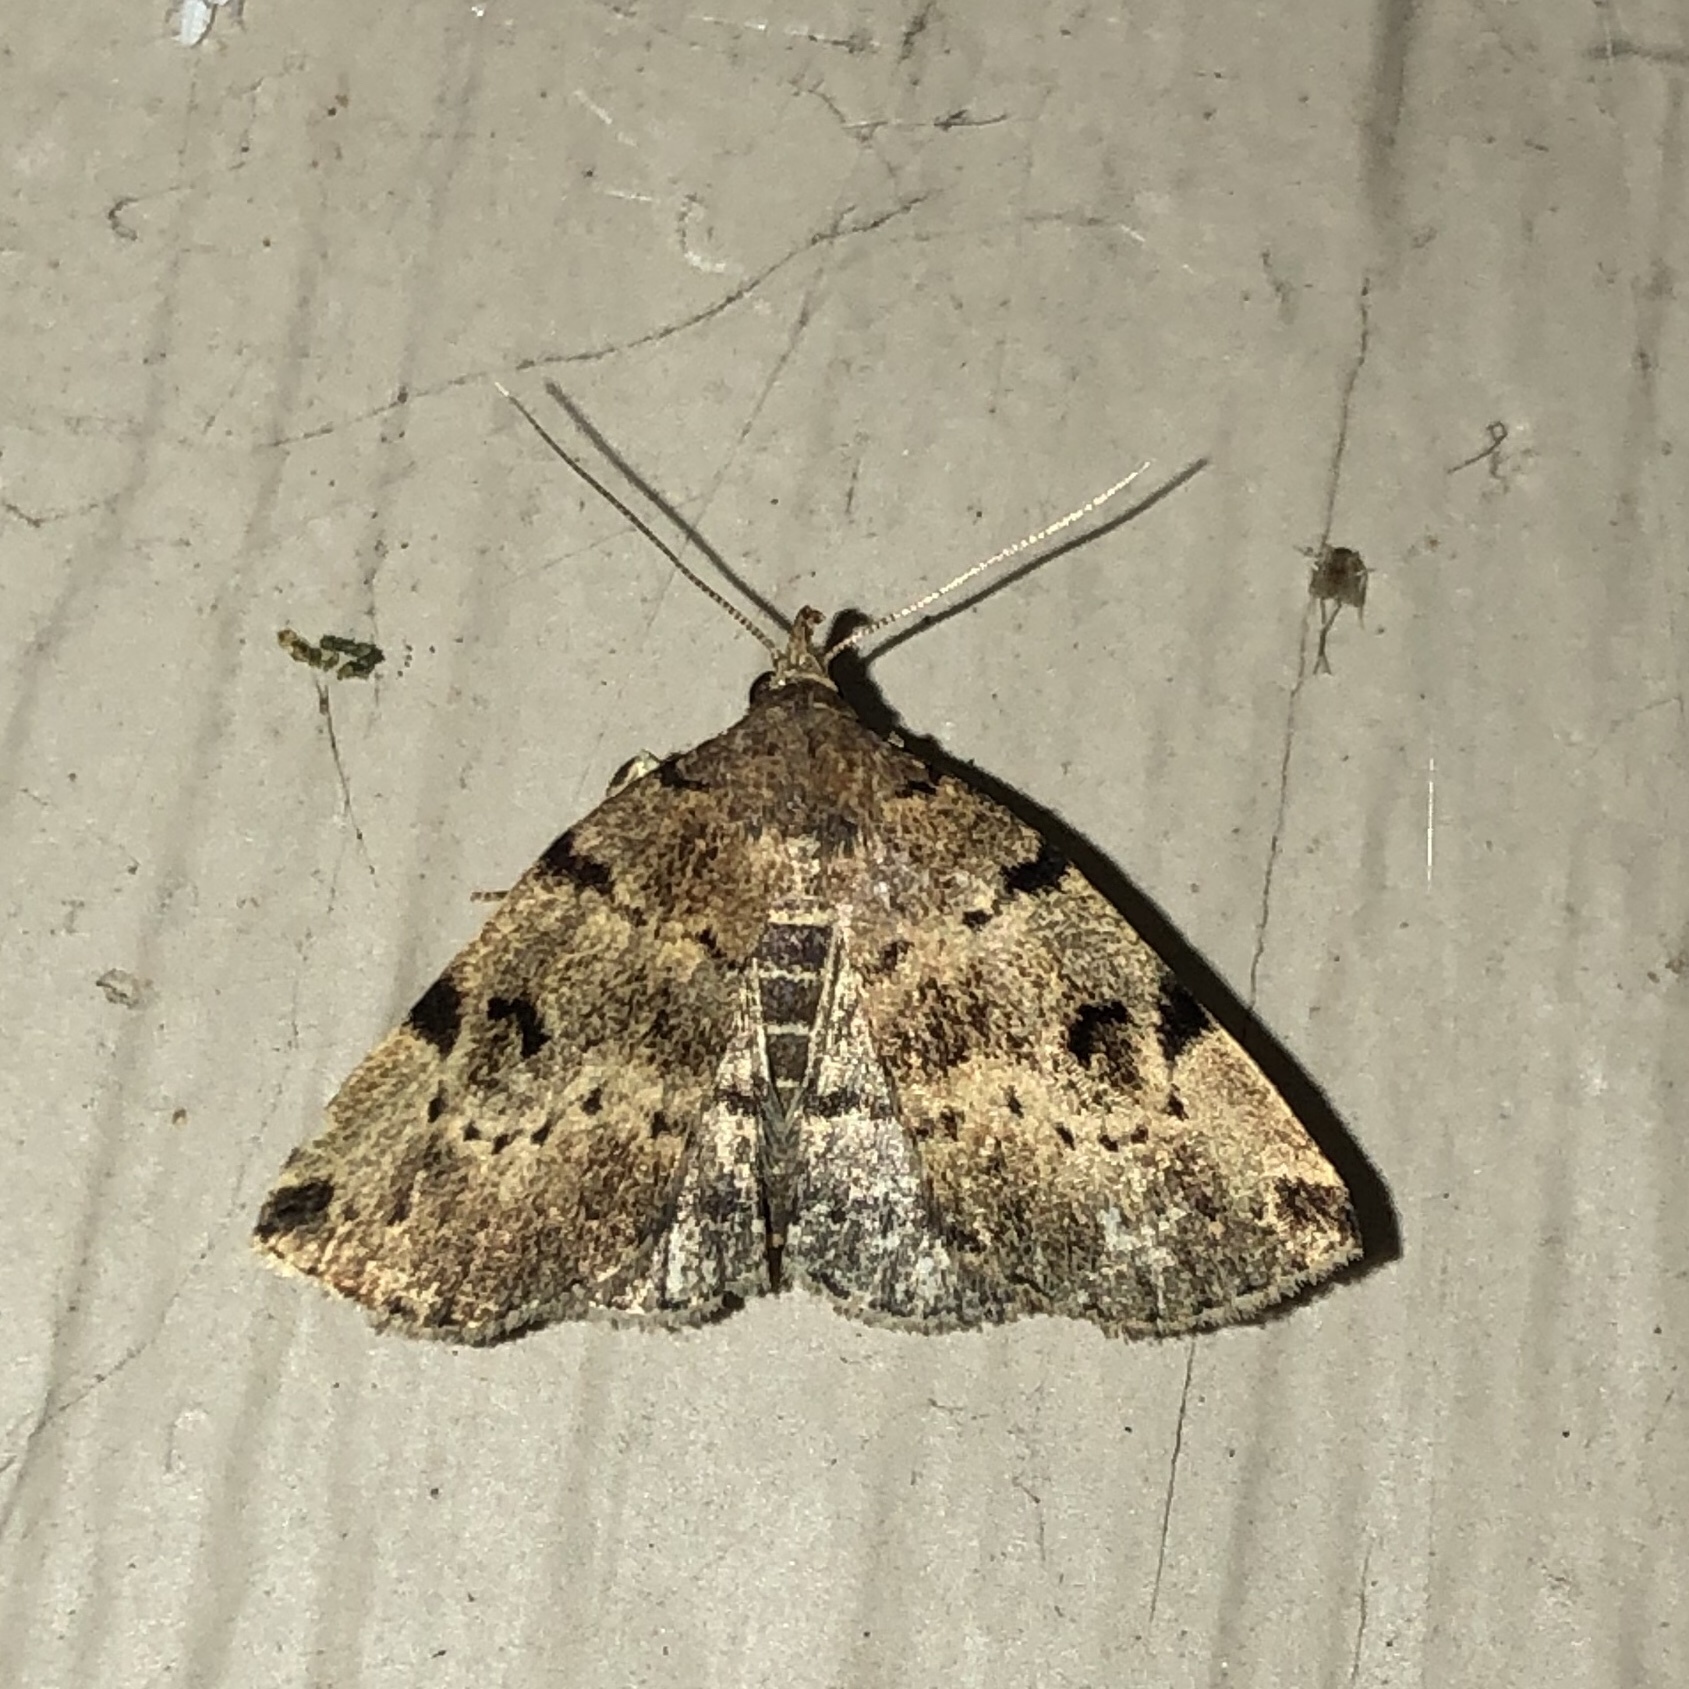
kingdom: Animalia
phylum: Arthropoda
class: Insecta
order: Lepidoptera
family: Erebidae
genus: Zanclognatha
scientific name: Zanclognatha lituralis
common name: Lettered fan-foot
